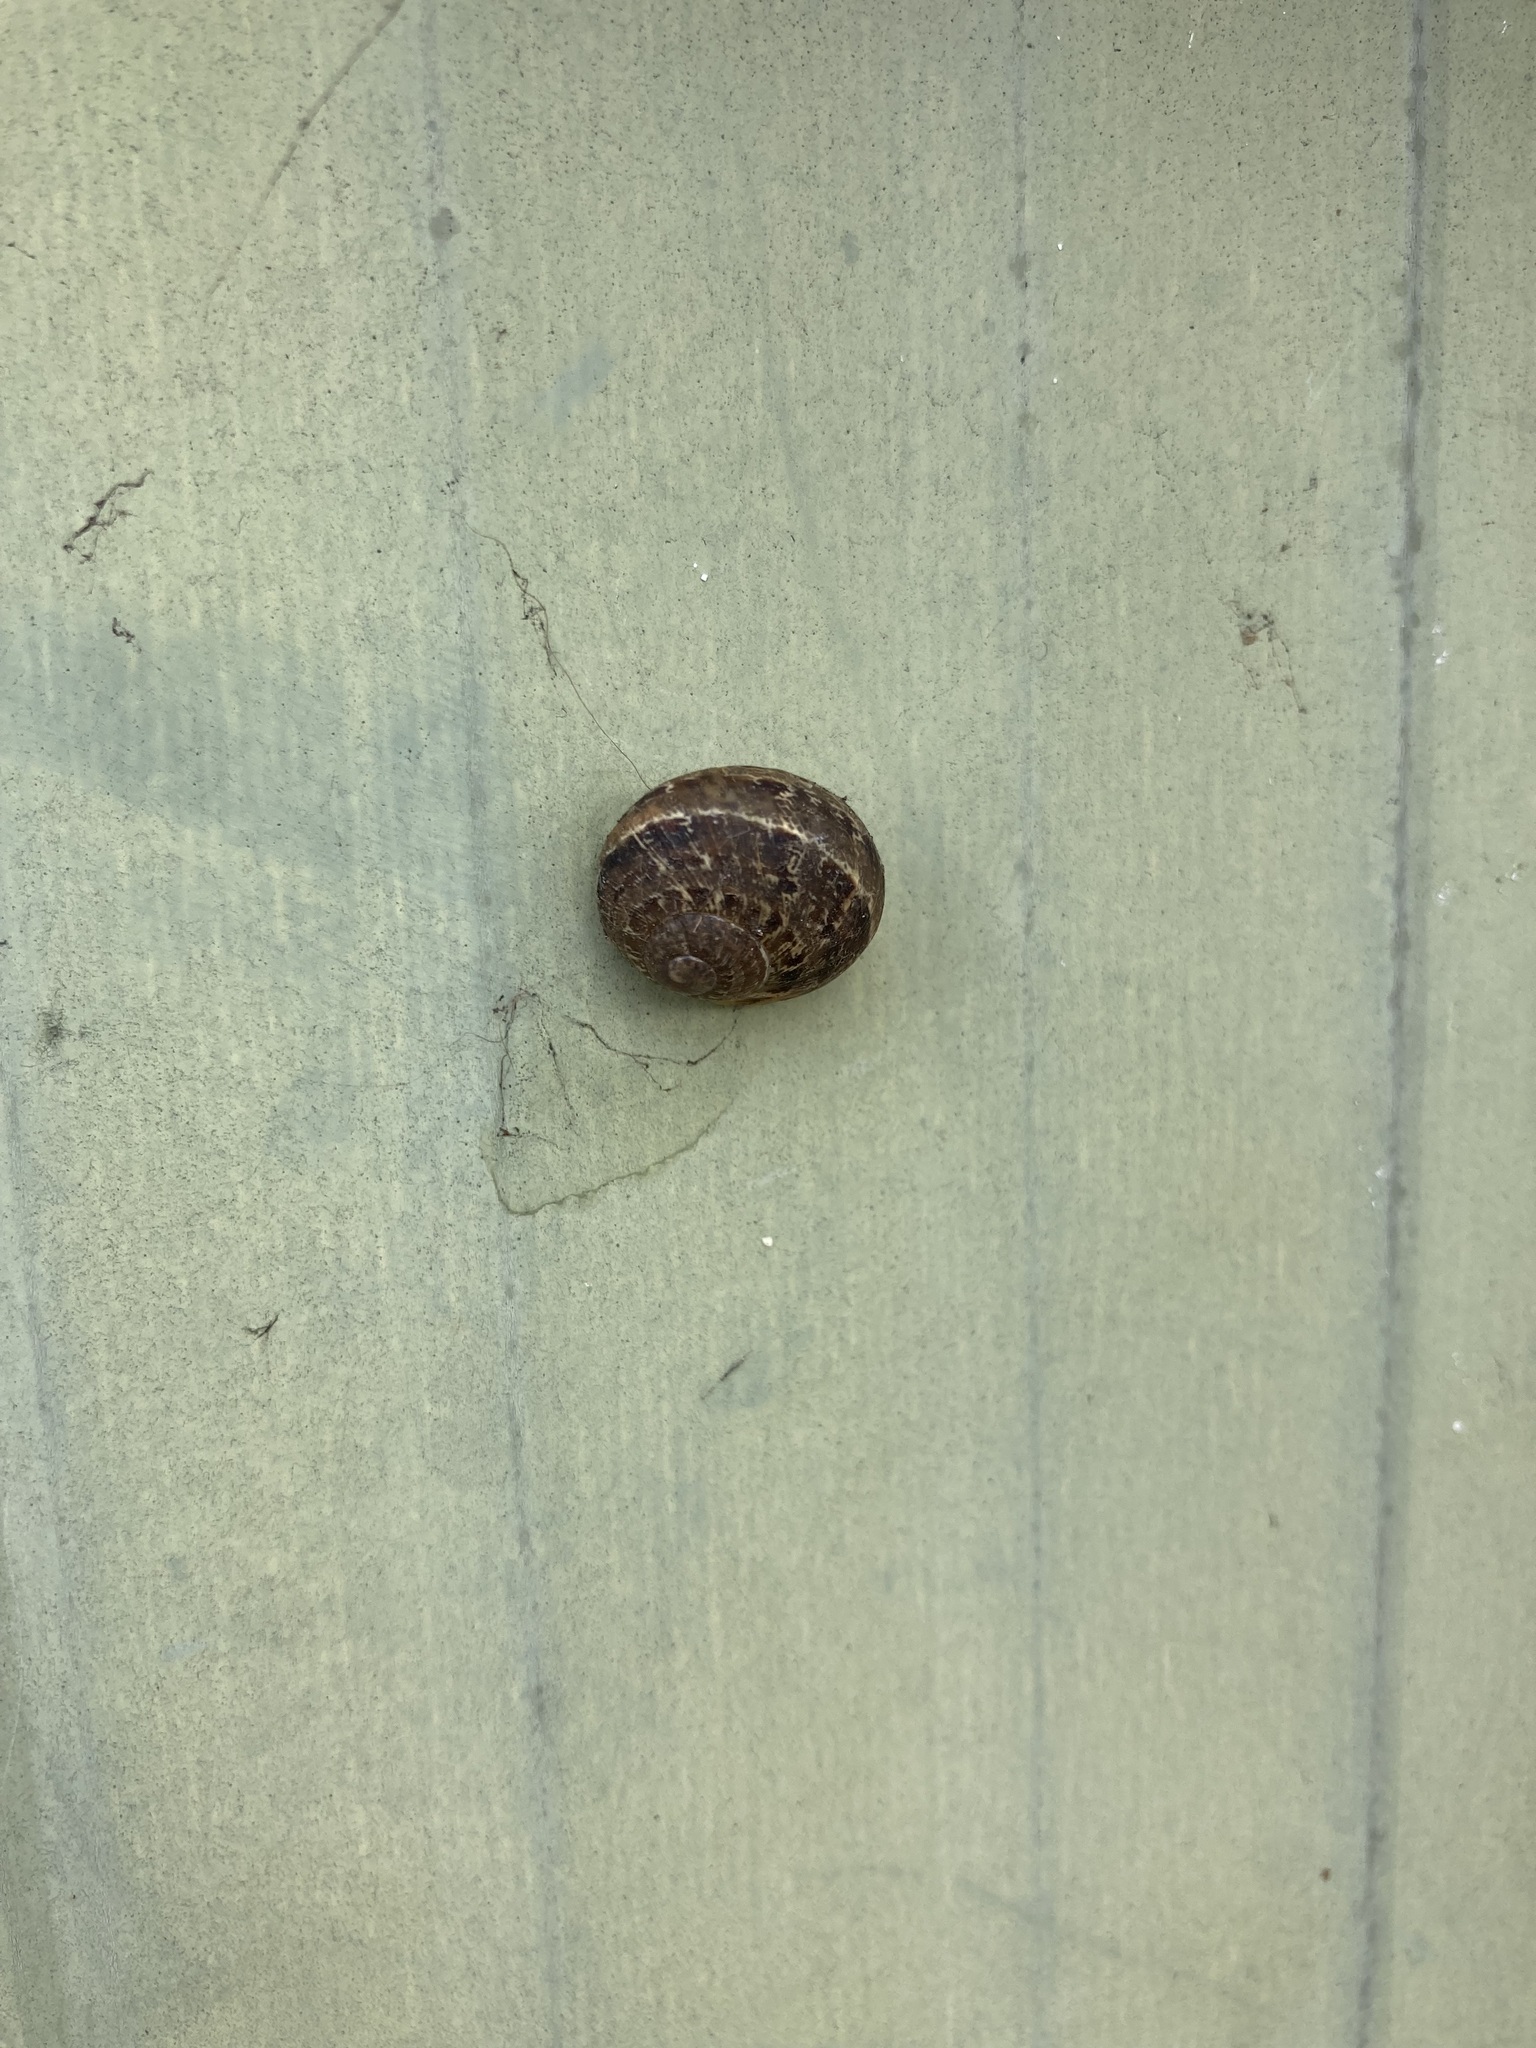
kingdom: Animalia
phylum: Mollusca
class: Gastropoda
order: Stylommatophora
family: Helicidae
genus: Cornu
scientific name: Cornu aspersum
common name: Brown garden snail
